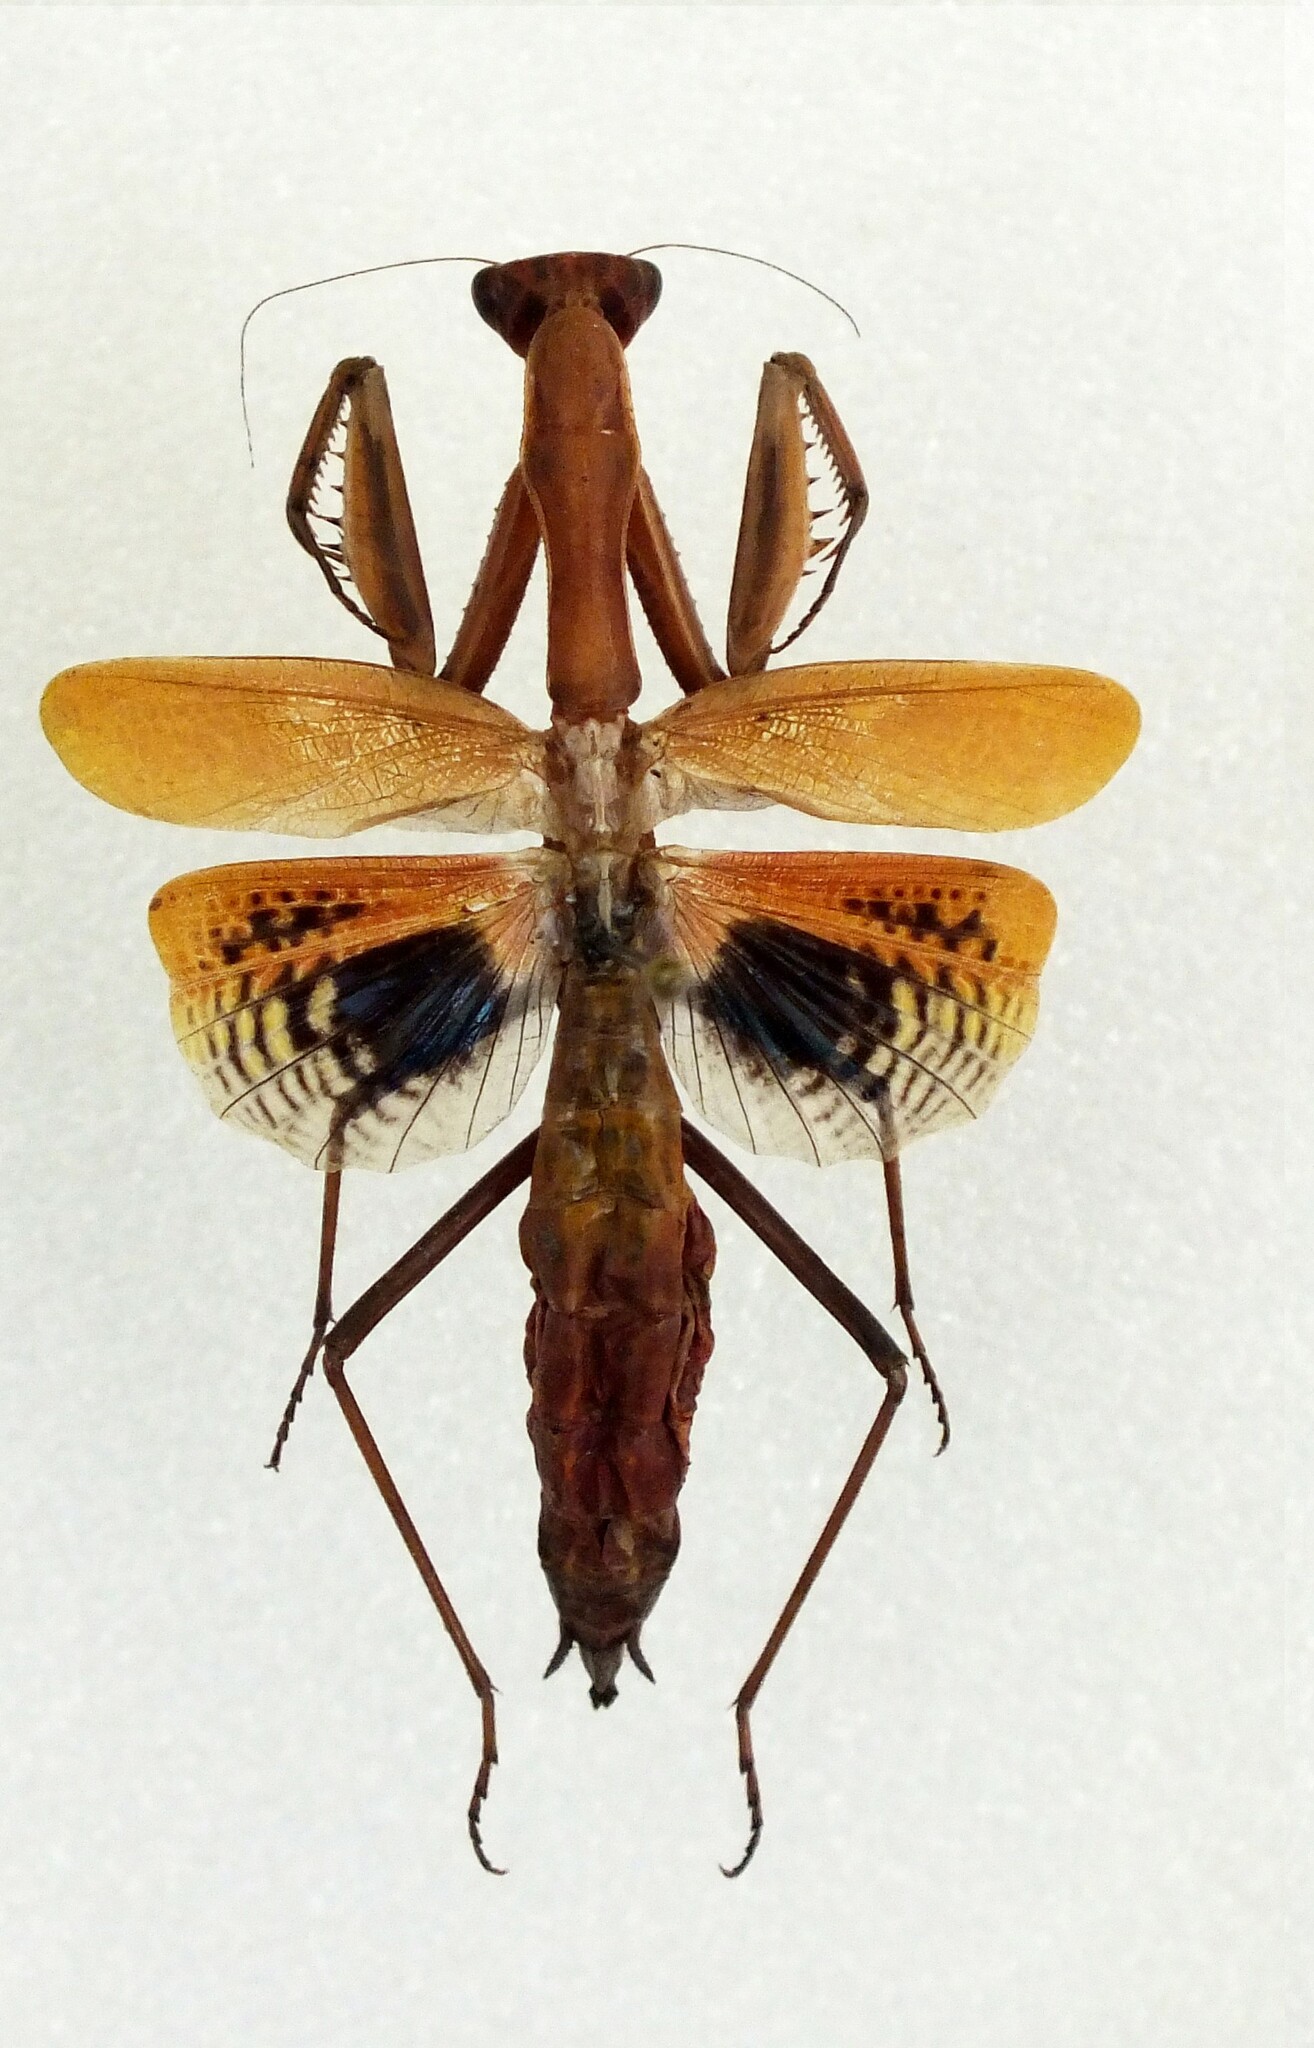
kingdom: Animalia
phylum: Arthropoda
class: Insecta
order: Mantodea
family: Eremiaphilidae
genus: Iris
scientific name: Iris polystictica
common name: Dot-winged mantis
